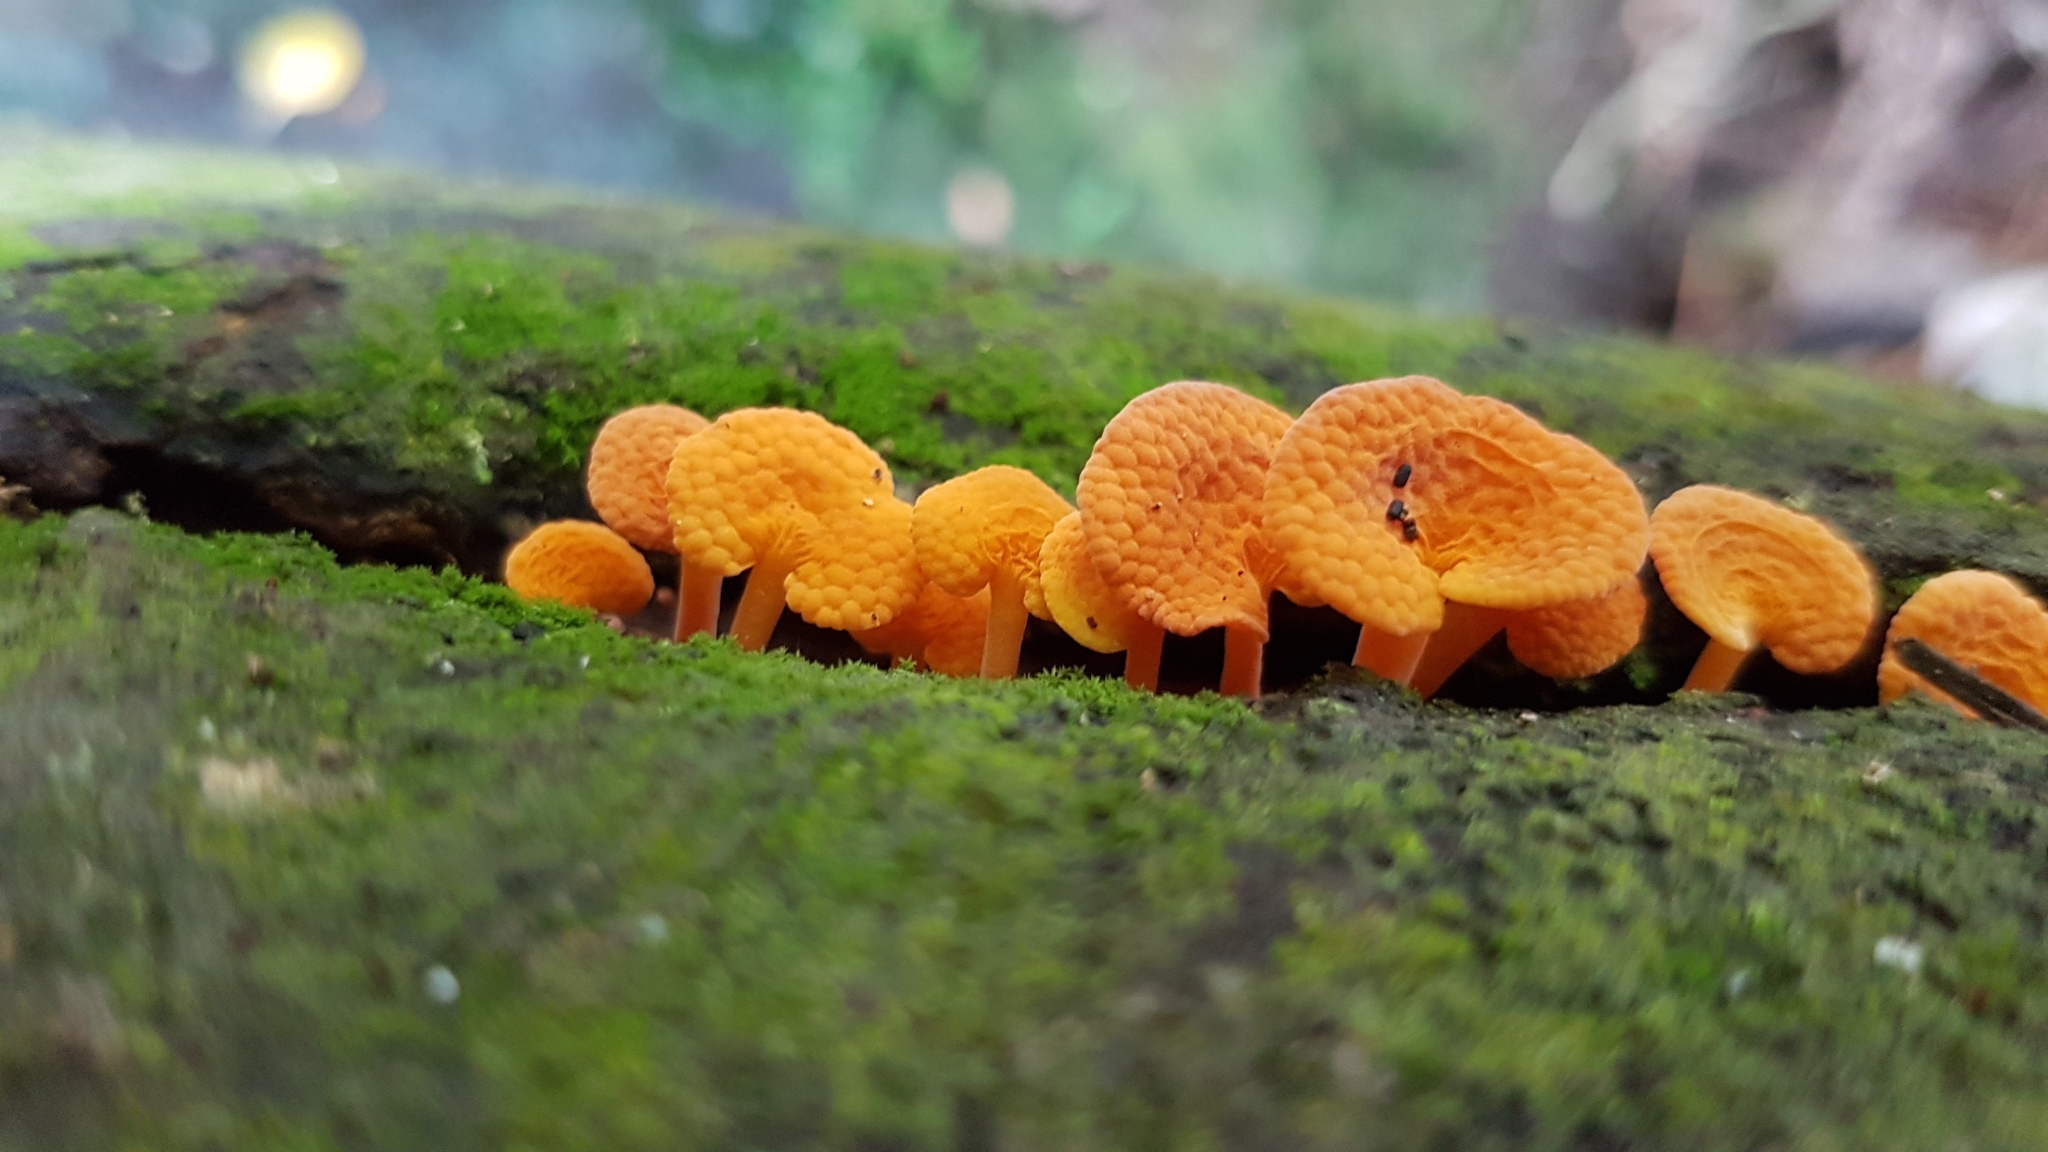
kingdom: Fungi
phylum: Basidiomycota
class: Agaricomycetes
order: Agaricales
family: Mycenaceae
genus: Favolaschia
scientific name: Favolaschia claudopus
